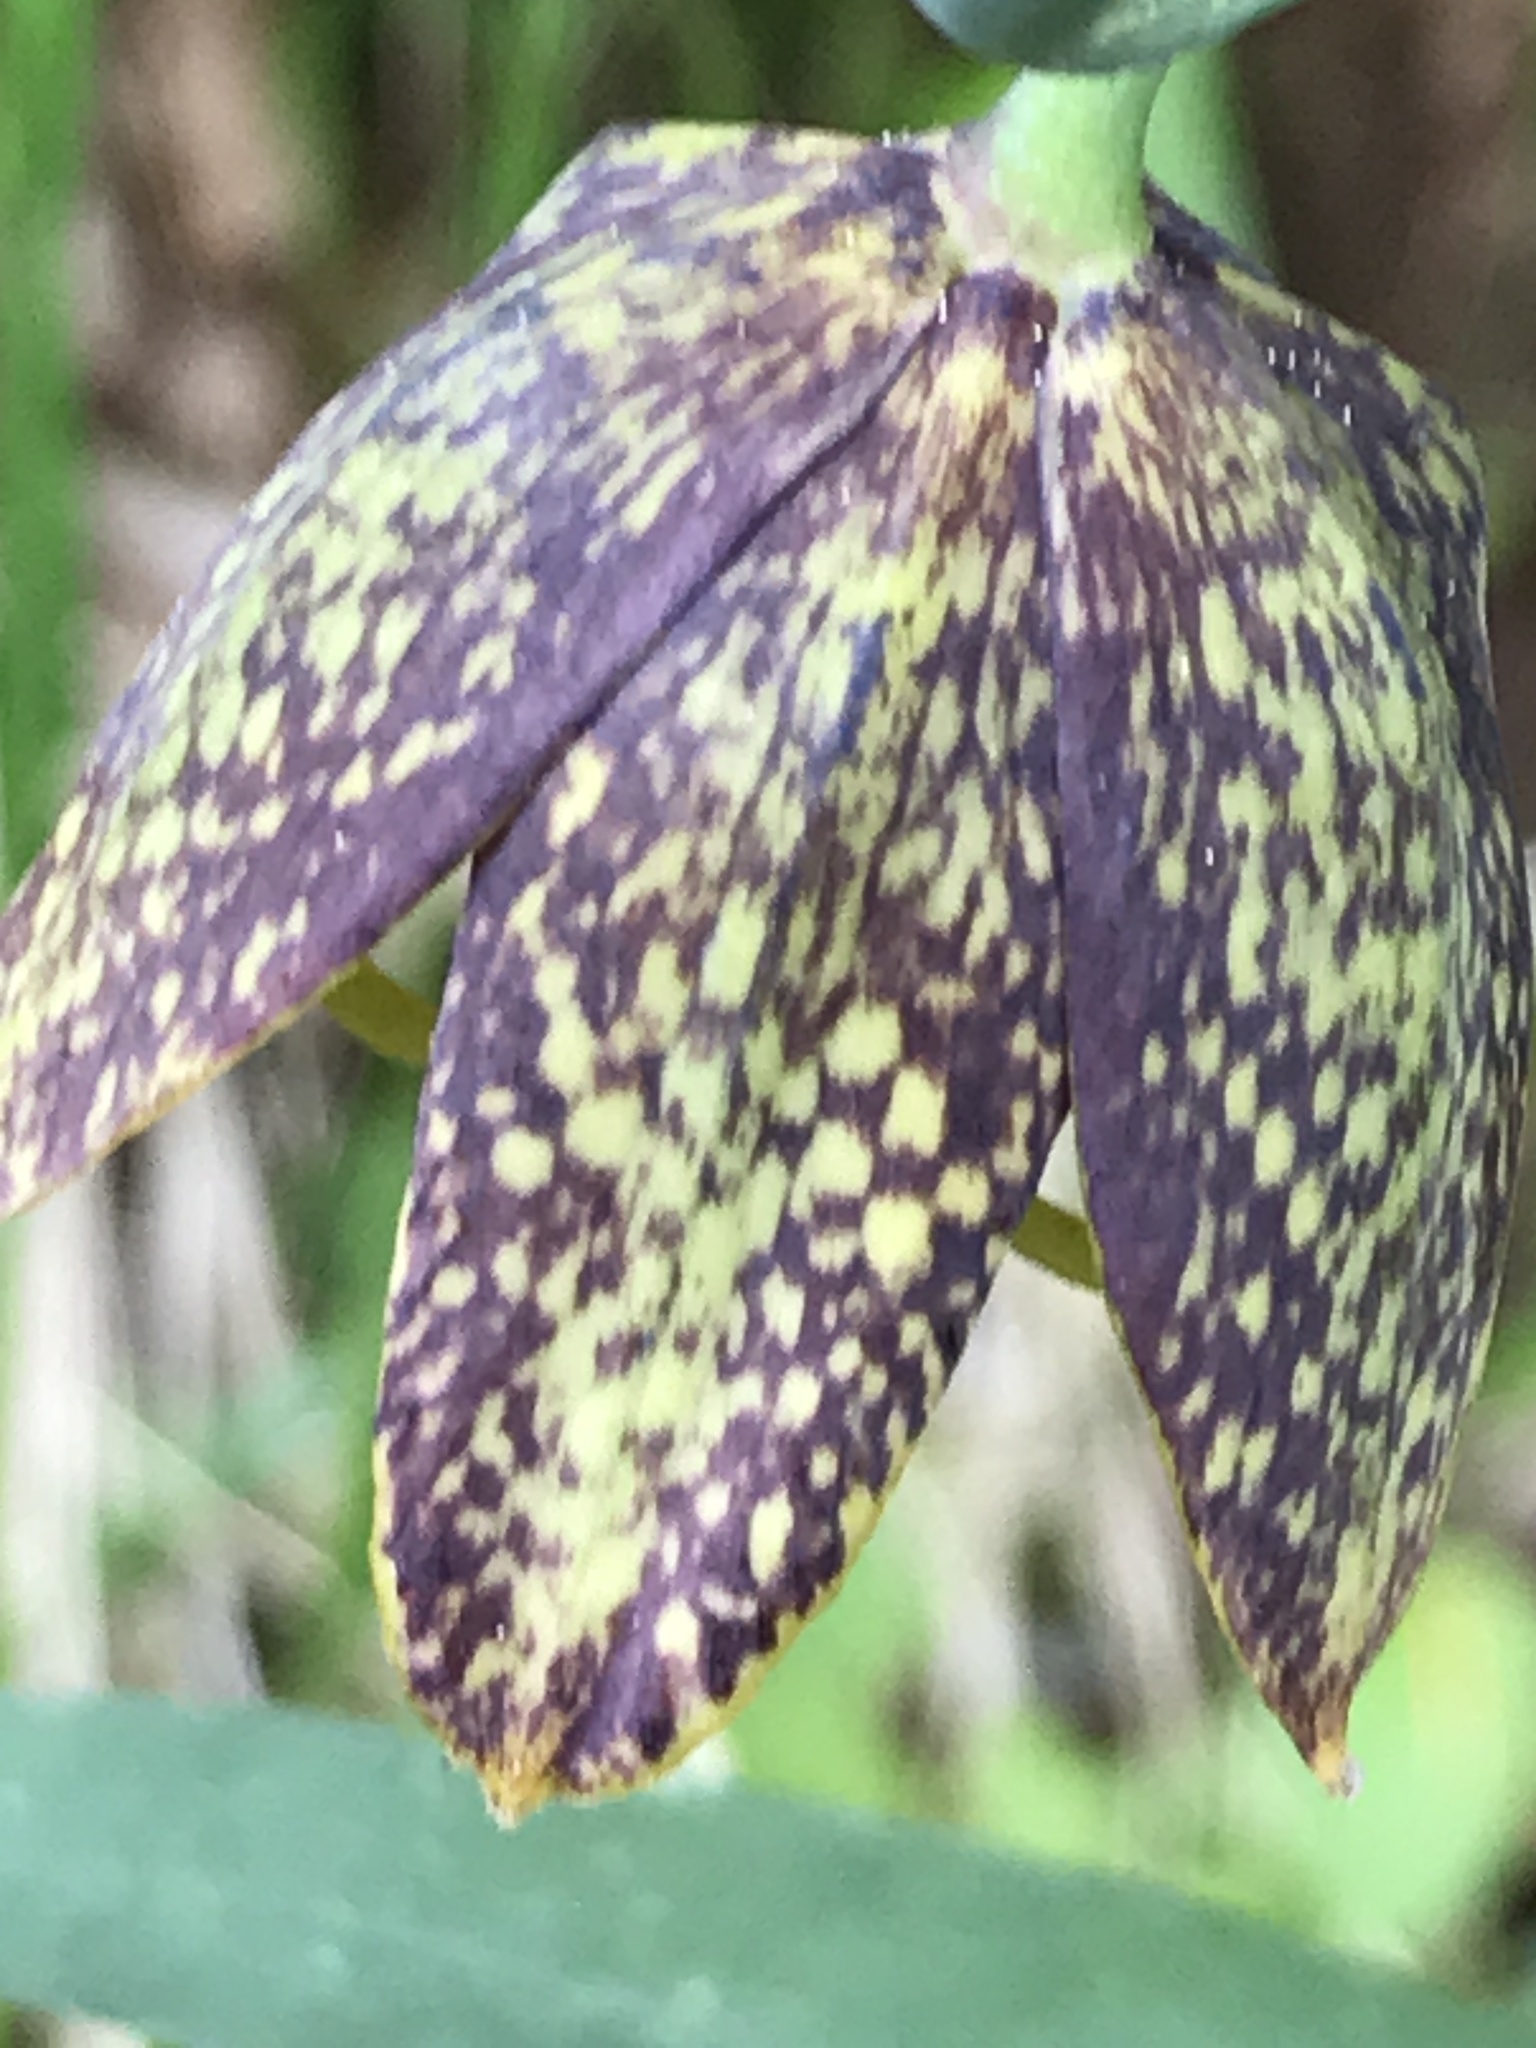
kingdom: Plantae
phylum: Tracheophyta
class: Liliopsida
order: Liliales
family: Liliaceae
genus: Fritillaria
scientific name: Fritillaria affinis
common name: Ojai fritillary
